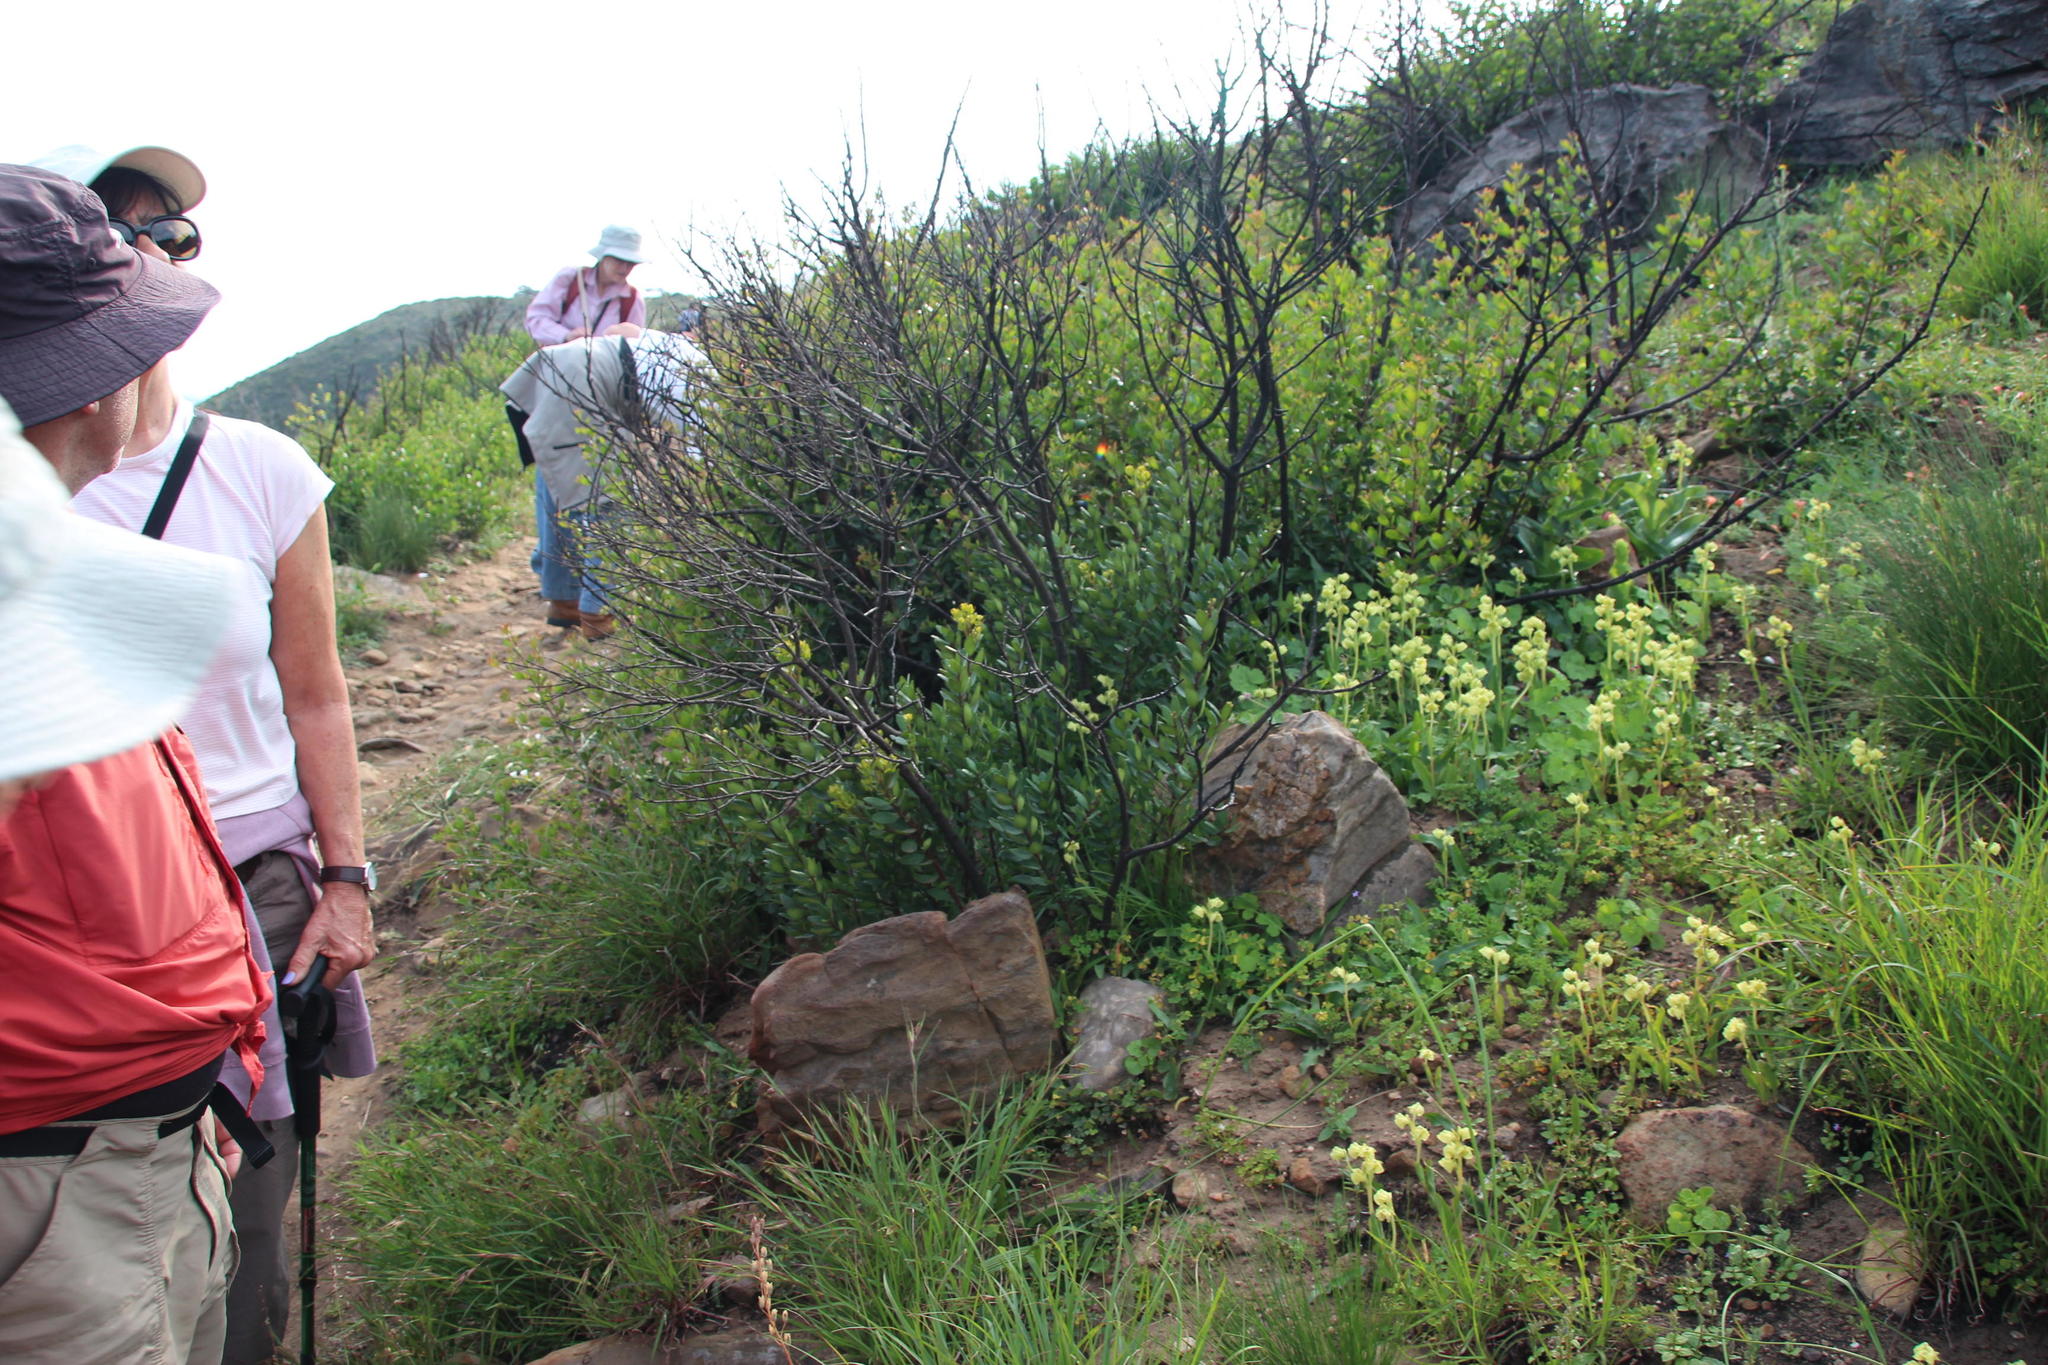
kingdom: Plantae
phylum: Tracheophyta
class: Liliopsida
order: Asparagales
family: Orchidaceae
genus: Pterygodium
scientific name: Pterygodium catholicum
